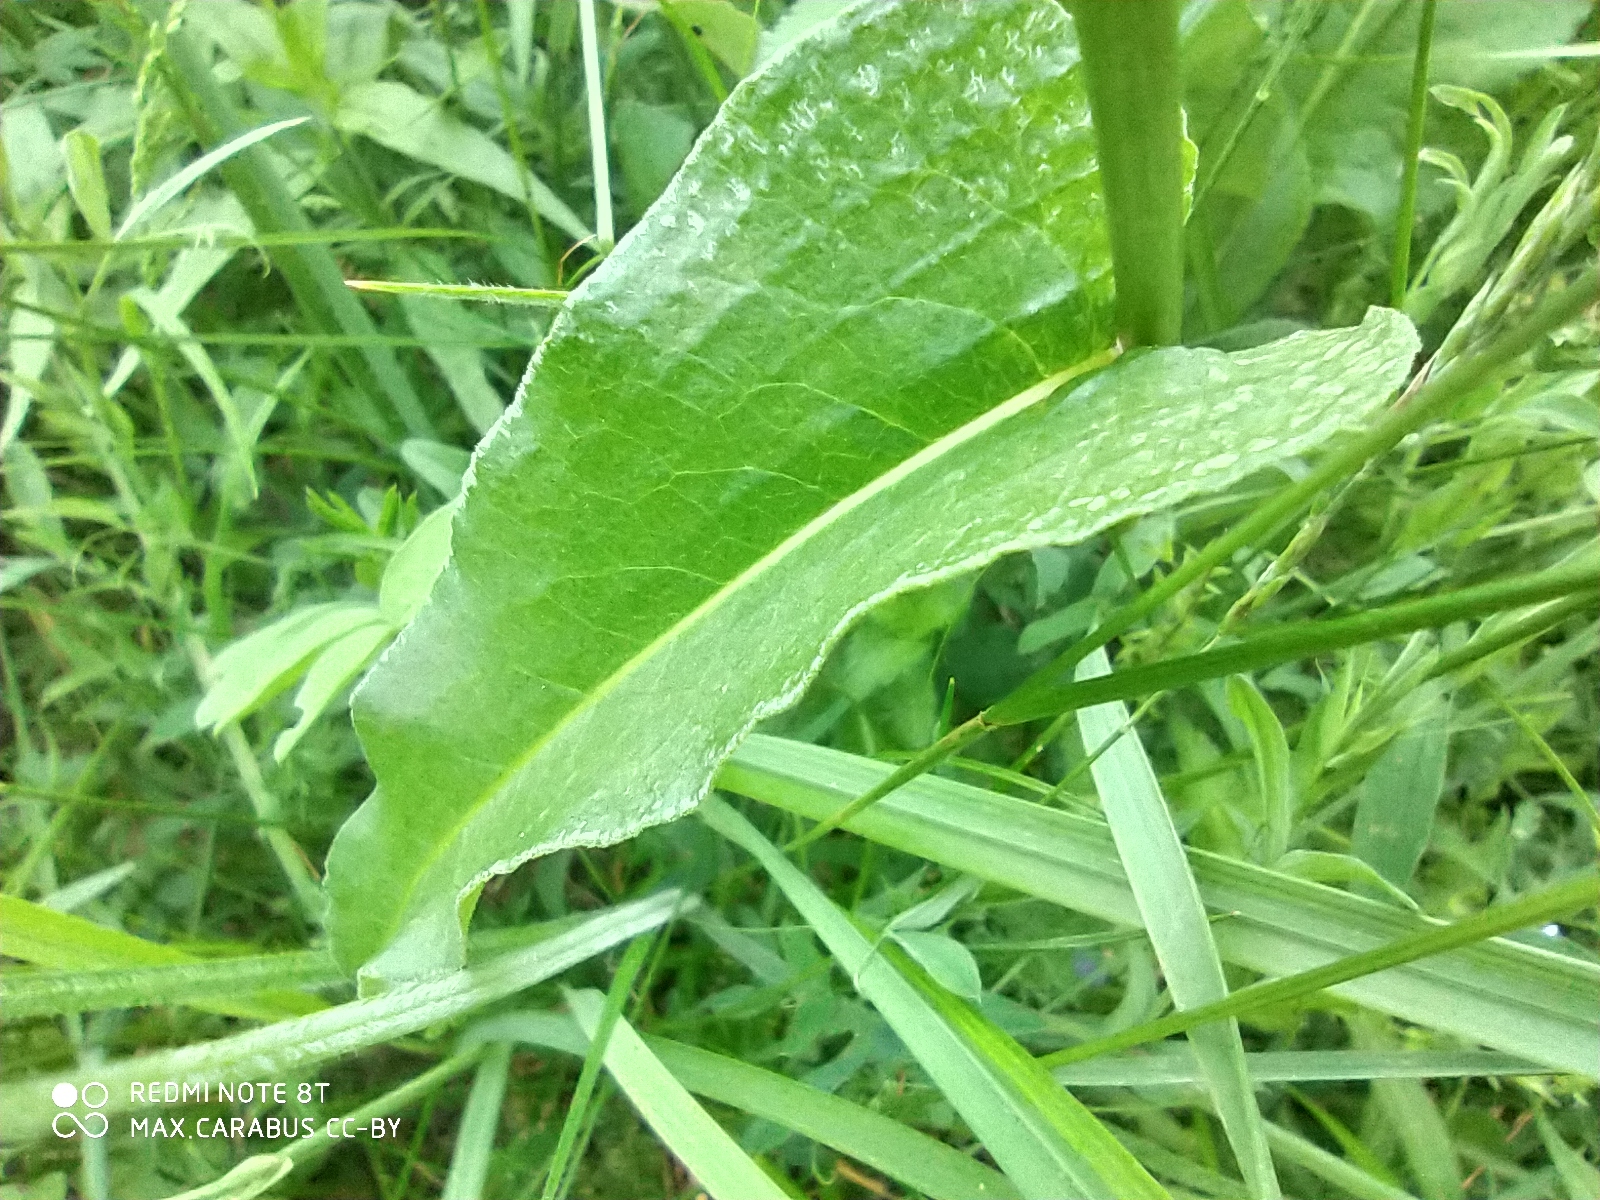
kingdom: Plantae
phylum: Tracheophyta
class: Magnoliopsida
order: Caryophyllales
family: Polygonaceae
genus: Bistorta
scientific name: Bistorta officinalis
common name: Common bistort
